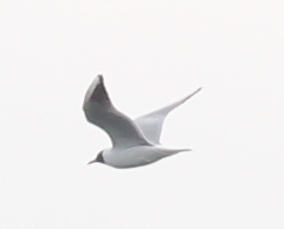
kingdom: Animalia
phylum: Chordata
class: Aves
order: Charadriiformes
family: Laridae
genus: Chroicocephalus
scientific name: Chroicocephalus ridibundus
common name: Black-headed gull
